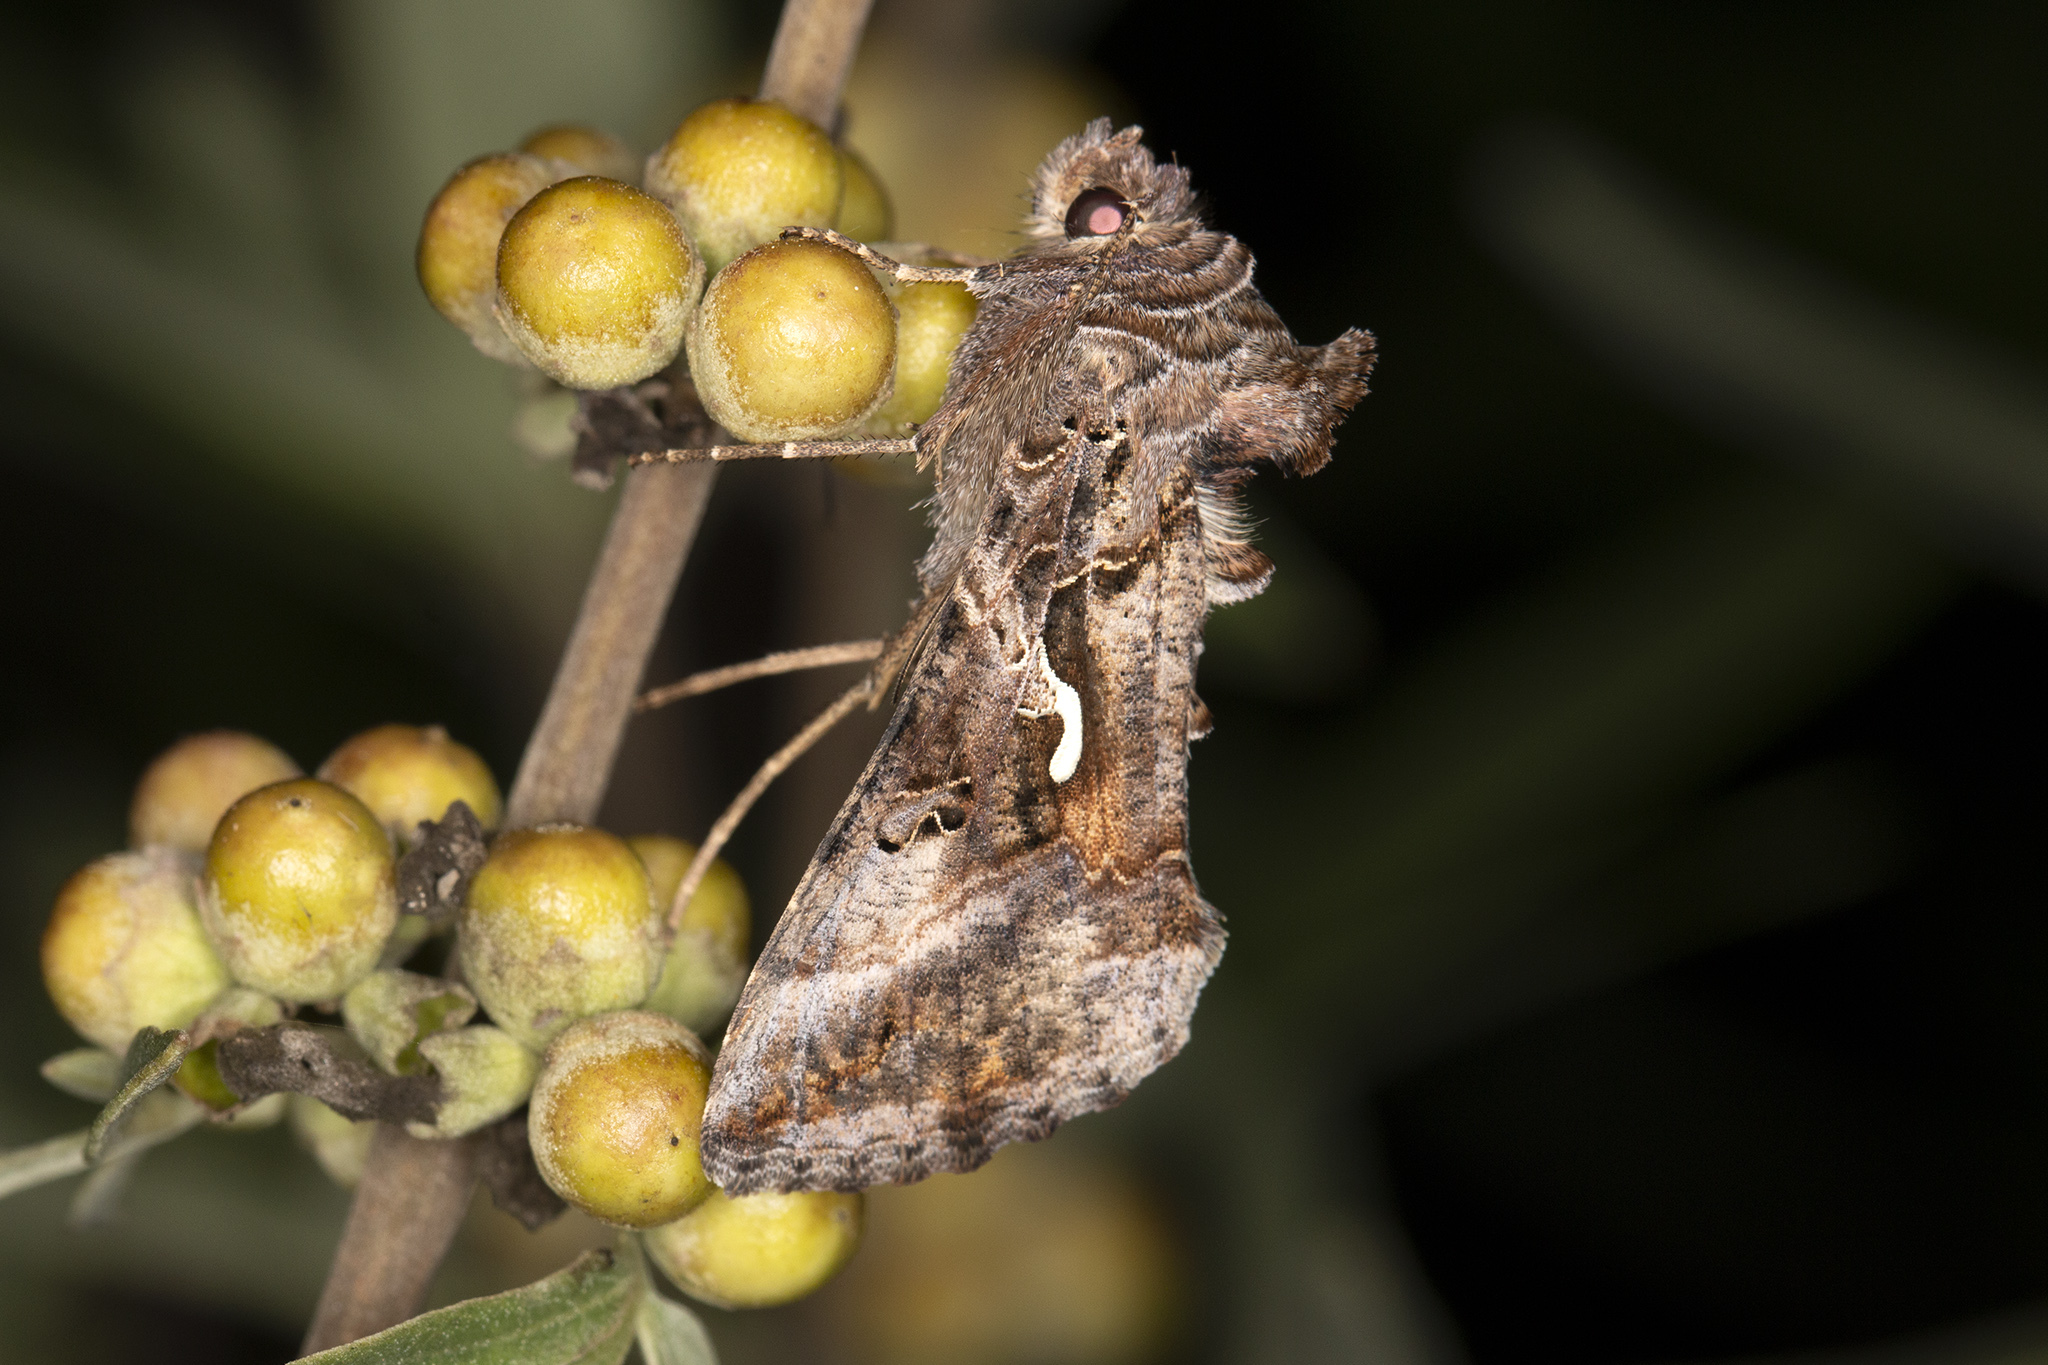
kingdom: Animalia
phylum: Arthropoda
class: Insecta
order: Lepidoptera
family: Noctuidae
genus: Autographa
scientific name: Autographa gamma
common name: Silver y
